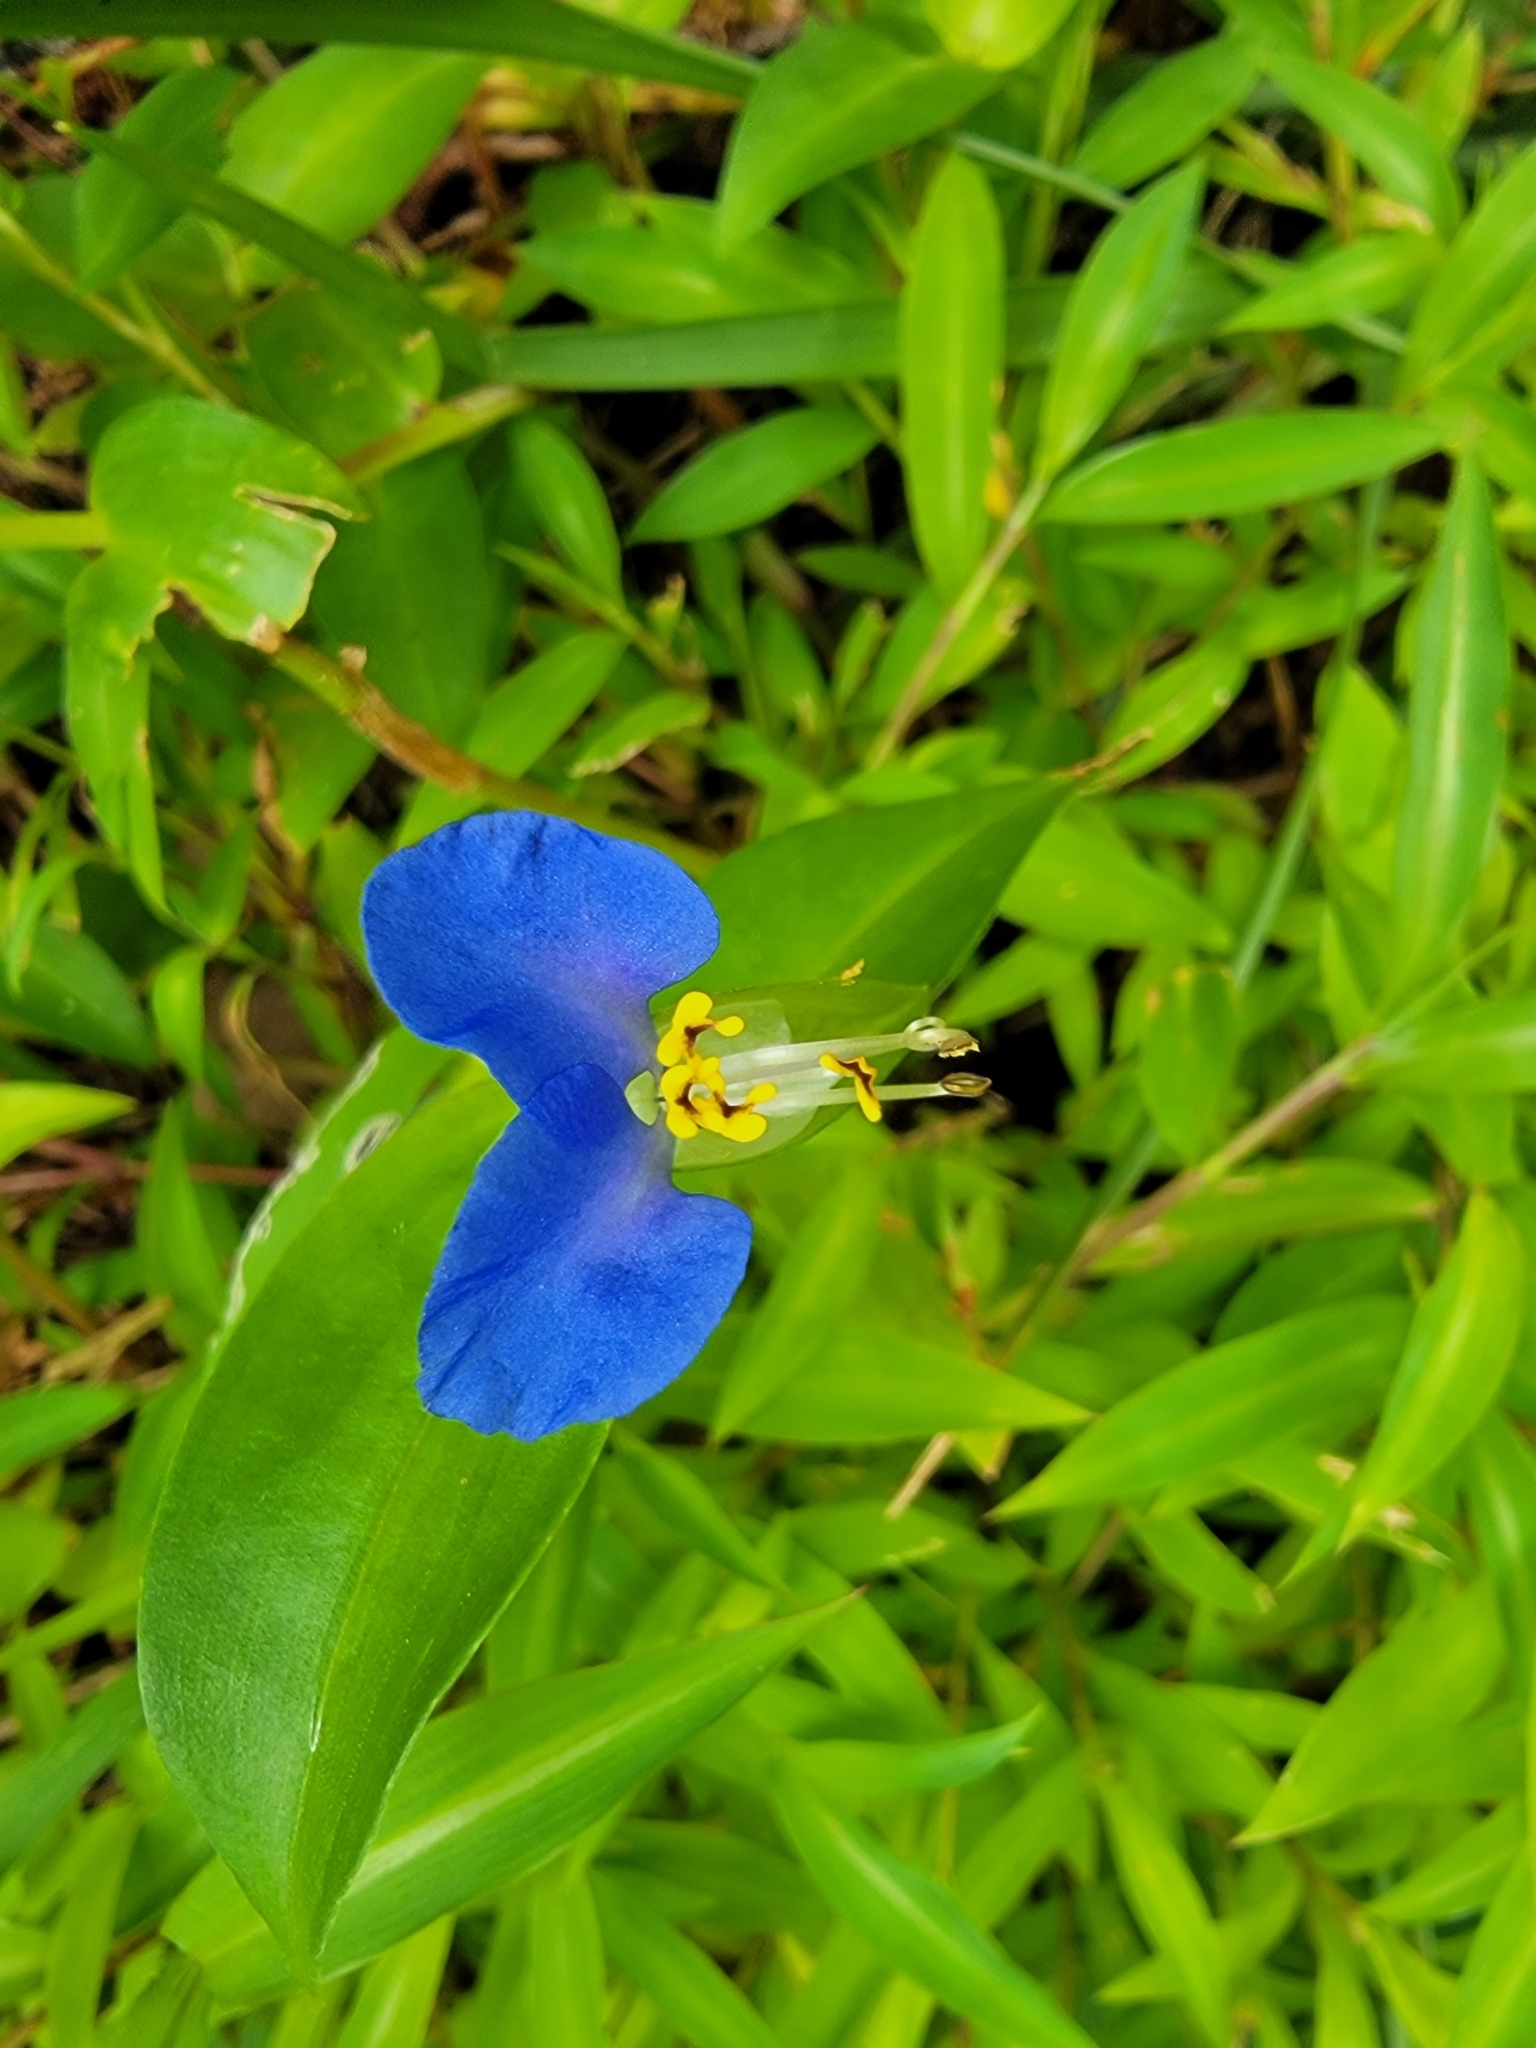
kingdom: Plantae
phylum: Tracheophyta
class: Liliopsida
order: Commelinales
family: Commelinaceae
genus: Commelina
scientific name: Commelina communis
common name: Asiatic dayflower
